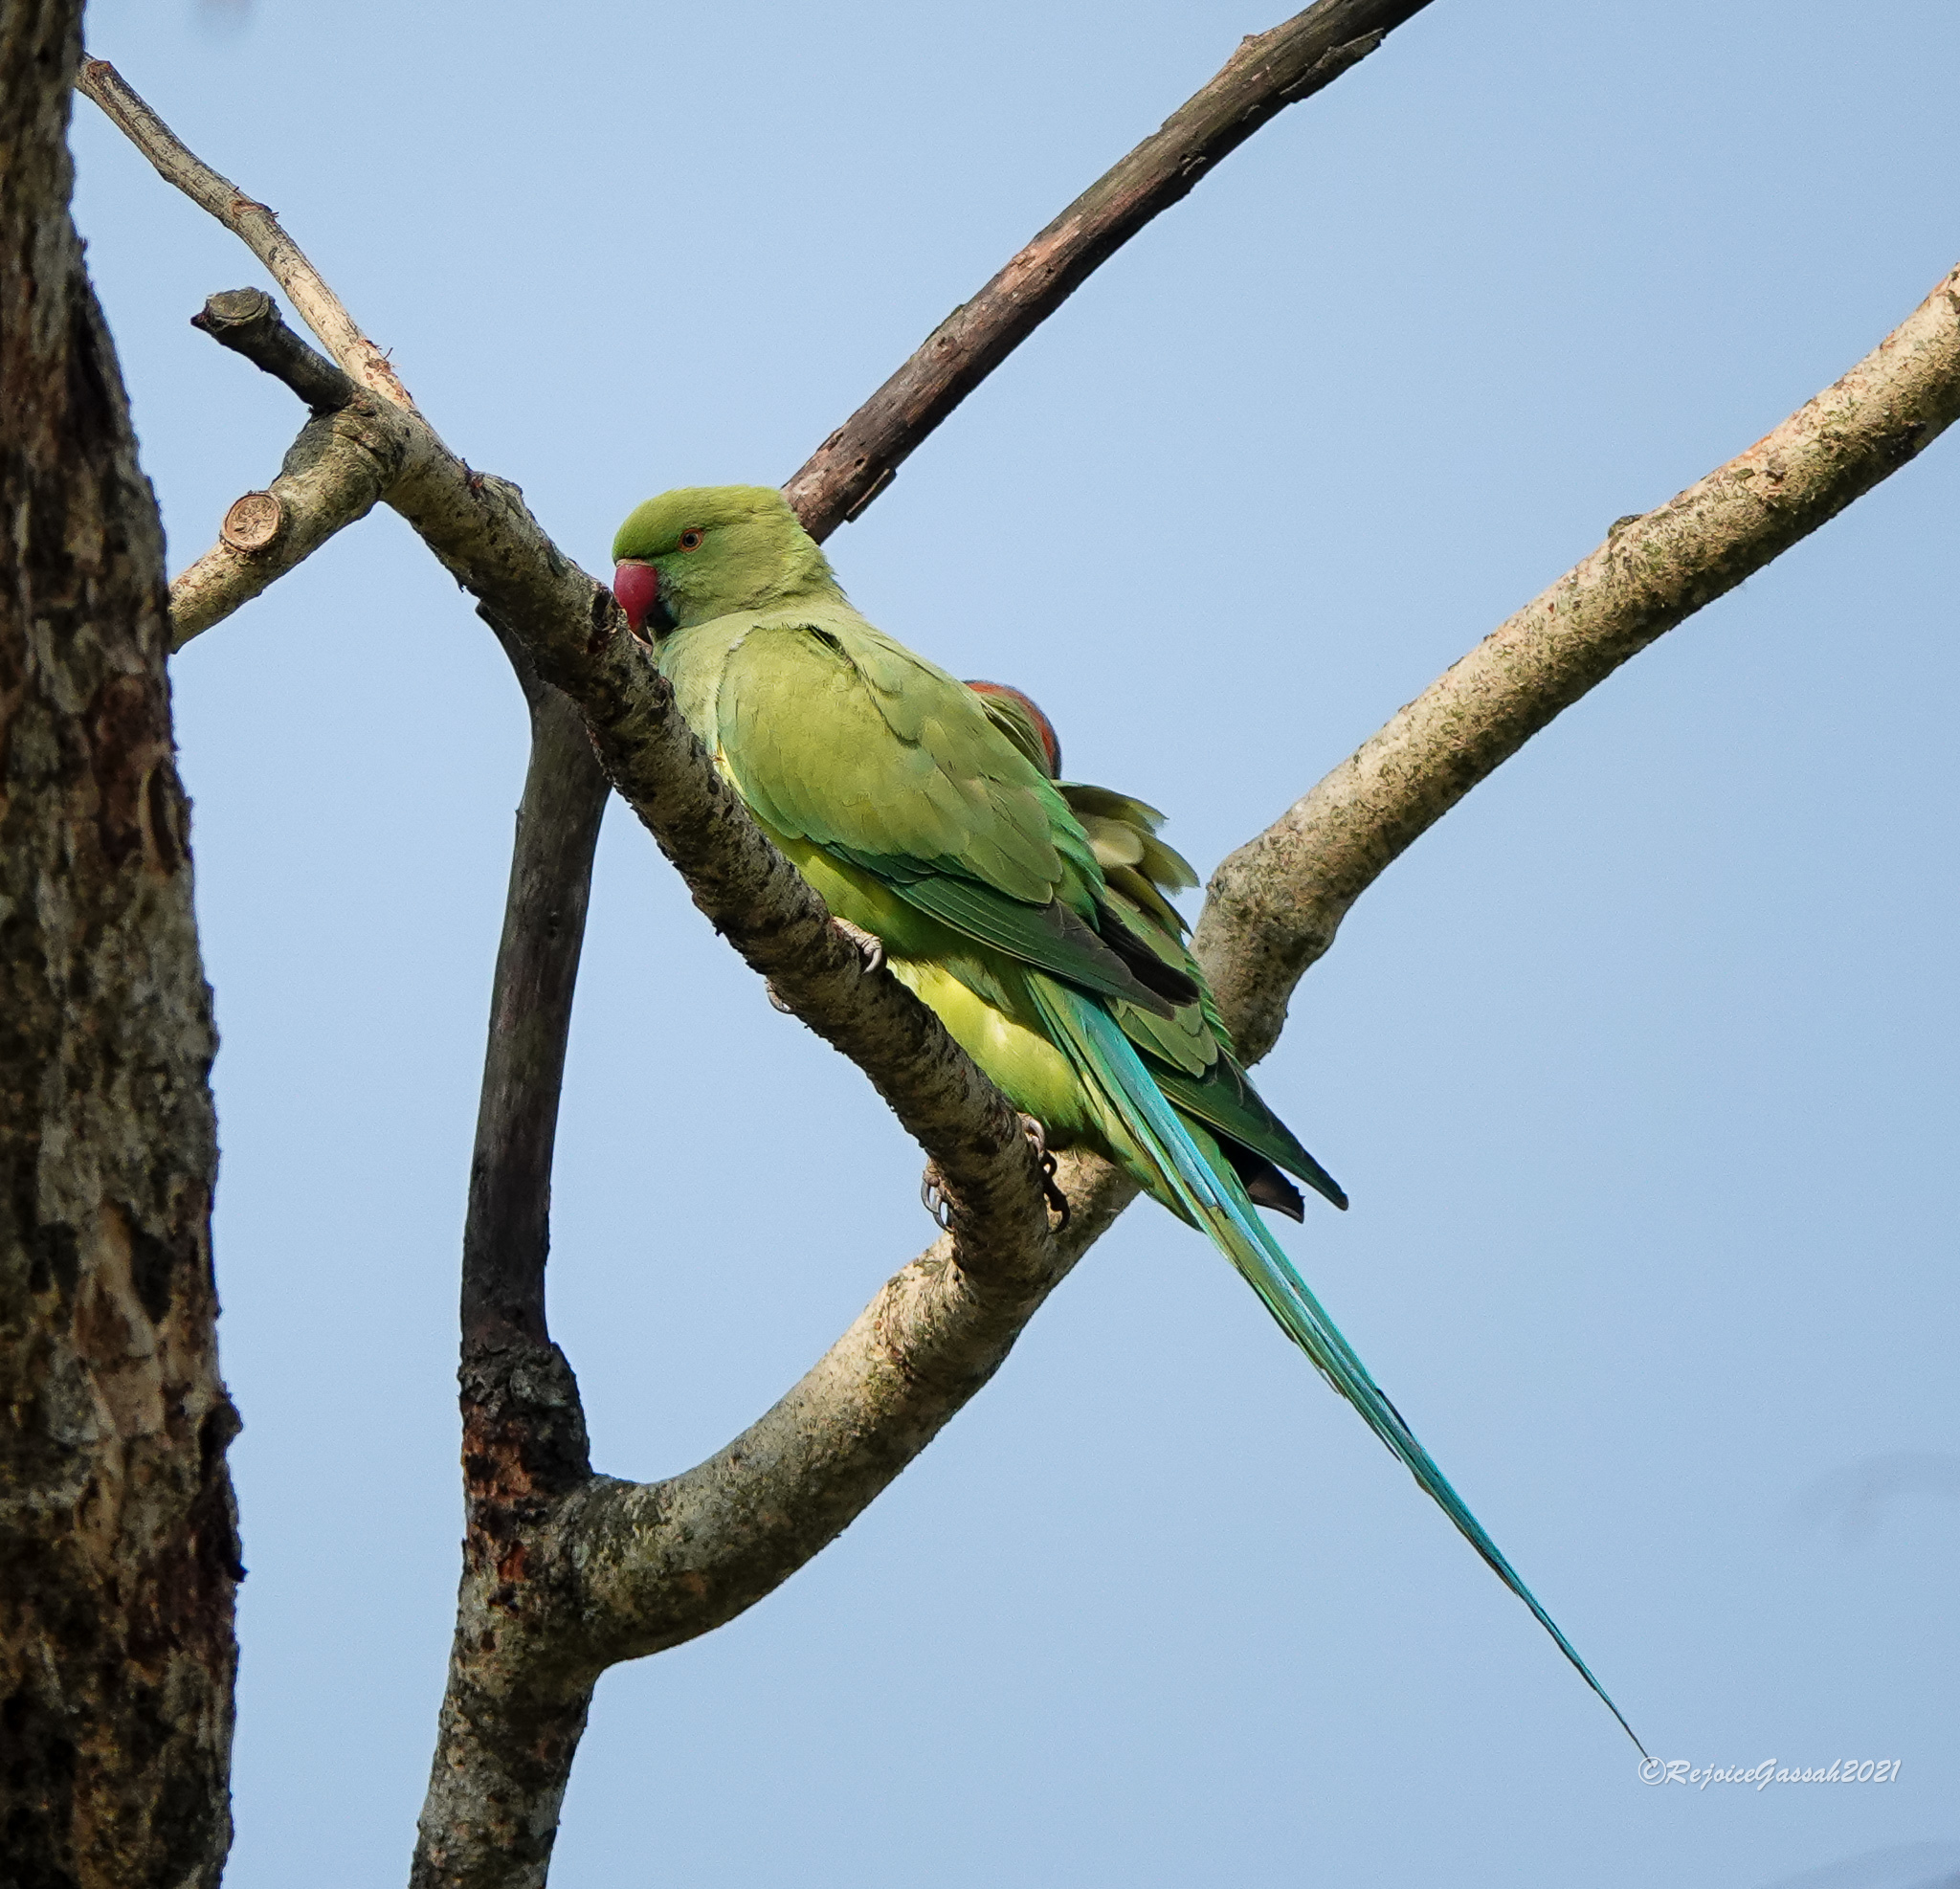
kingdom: Animalia
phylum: Chordata
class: Aves
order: Psittaciformes
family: Psittacidae
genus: Psittacula
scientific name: Psittacula krameri
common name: Rose-ringed parakeet
